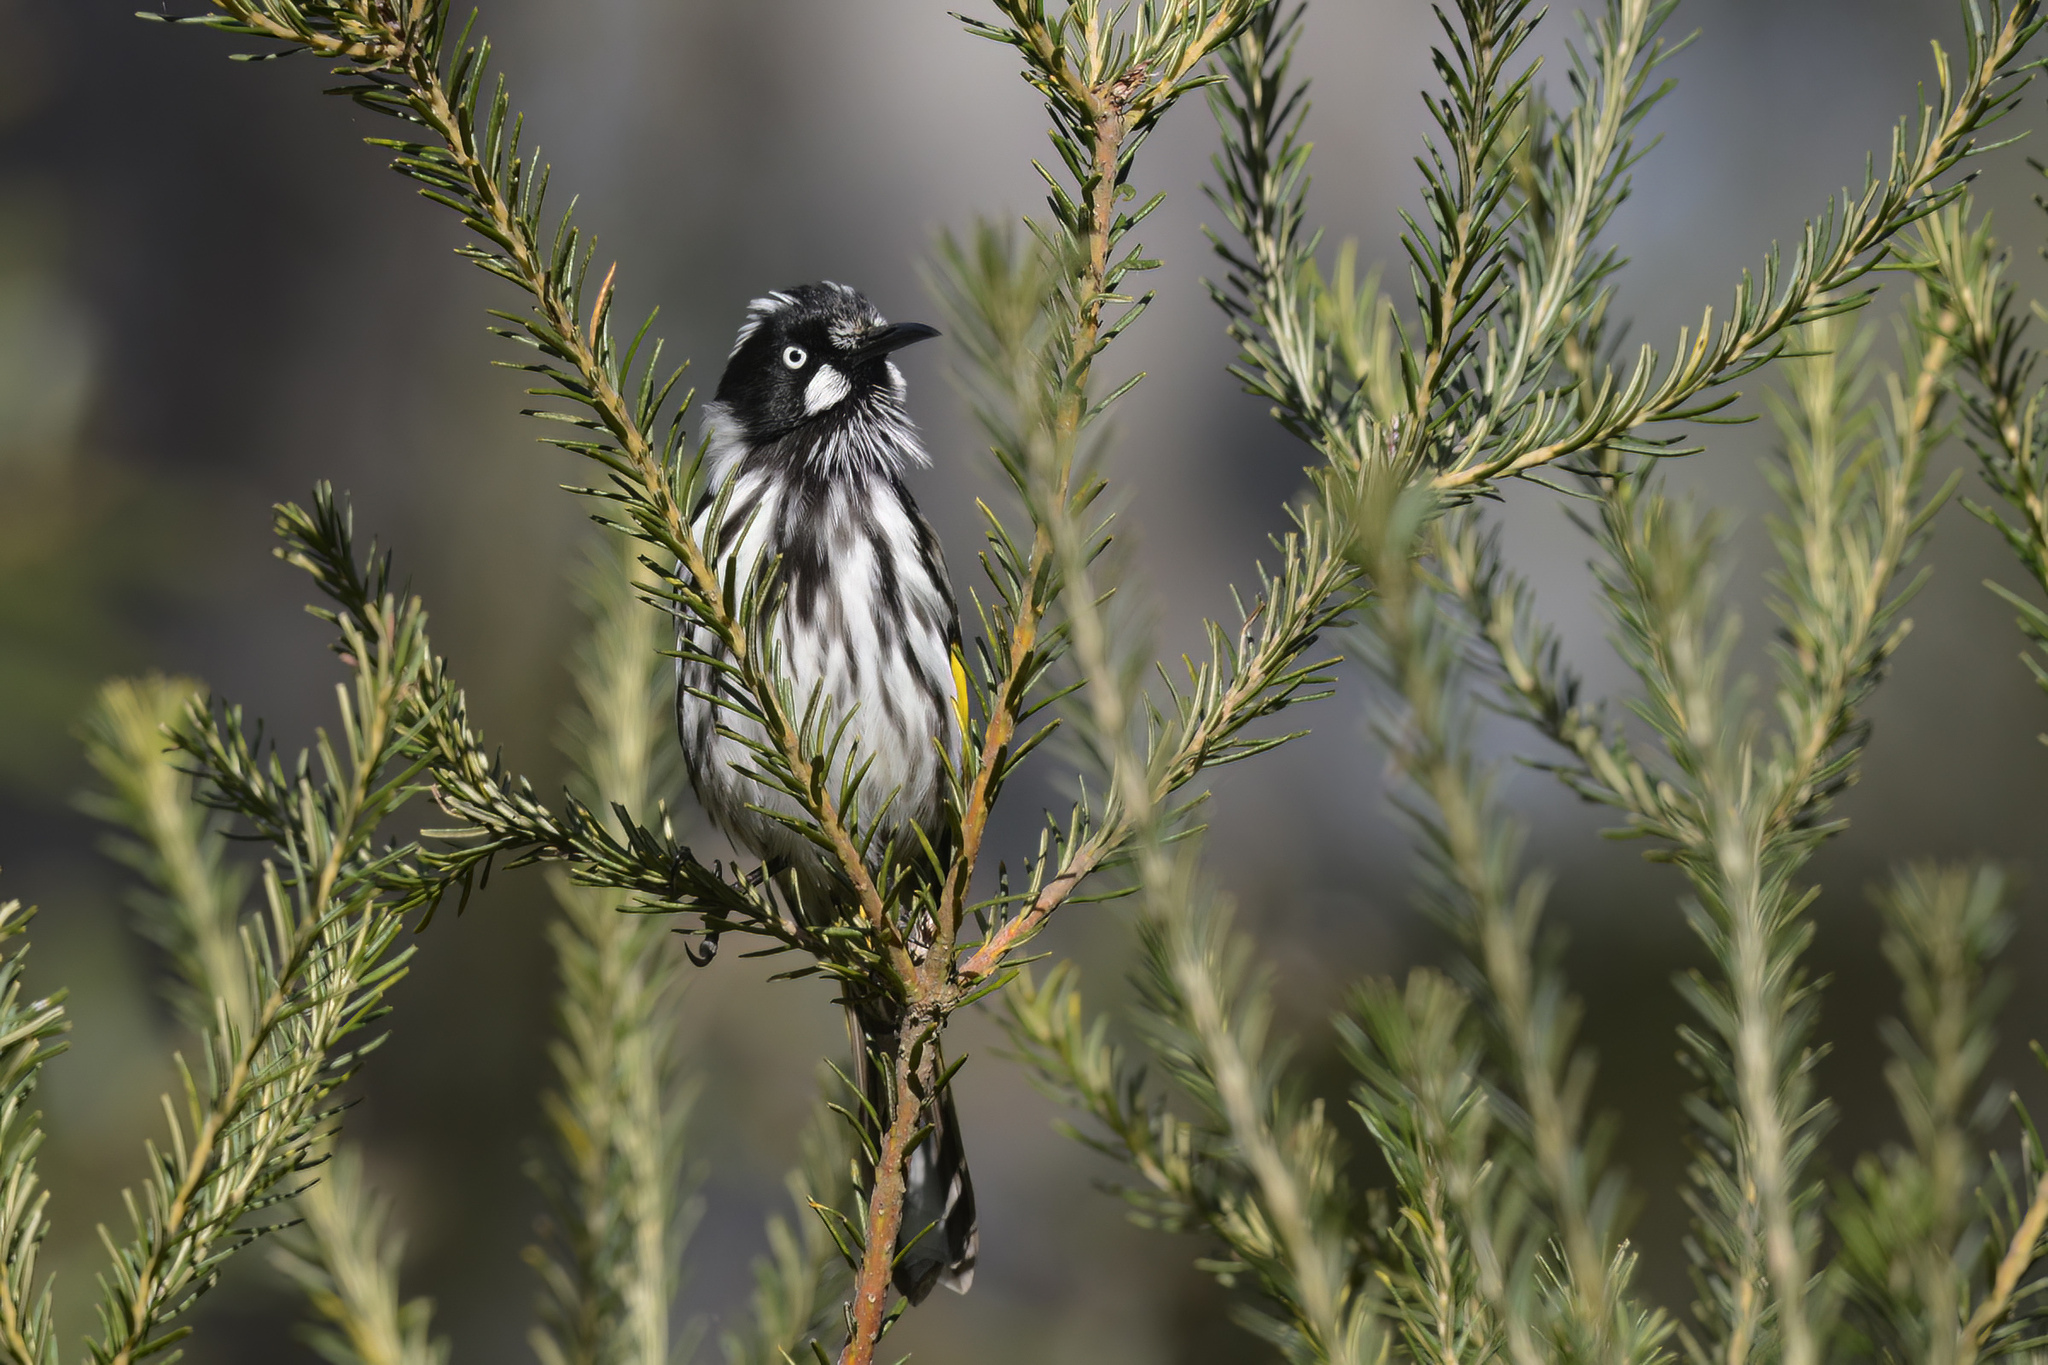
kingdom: Animalia
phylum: Chordata
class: Aves
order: Passeriformes
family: Meliphagidae
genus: Phylidonyris
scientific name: Phylidonyris novaehollandiae
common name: New holland honeyeater
